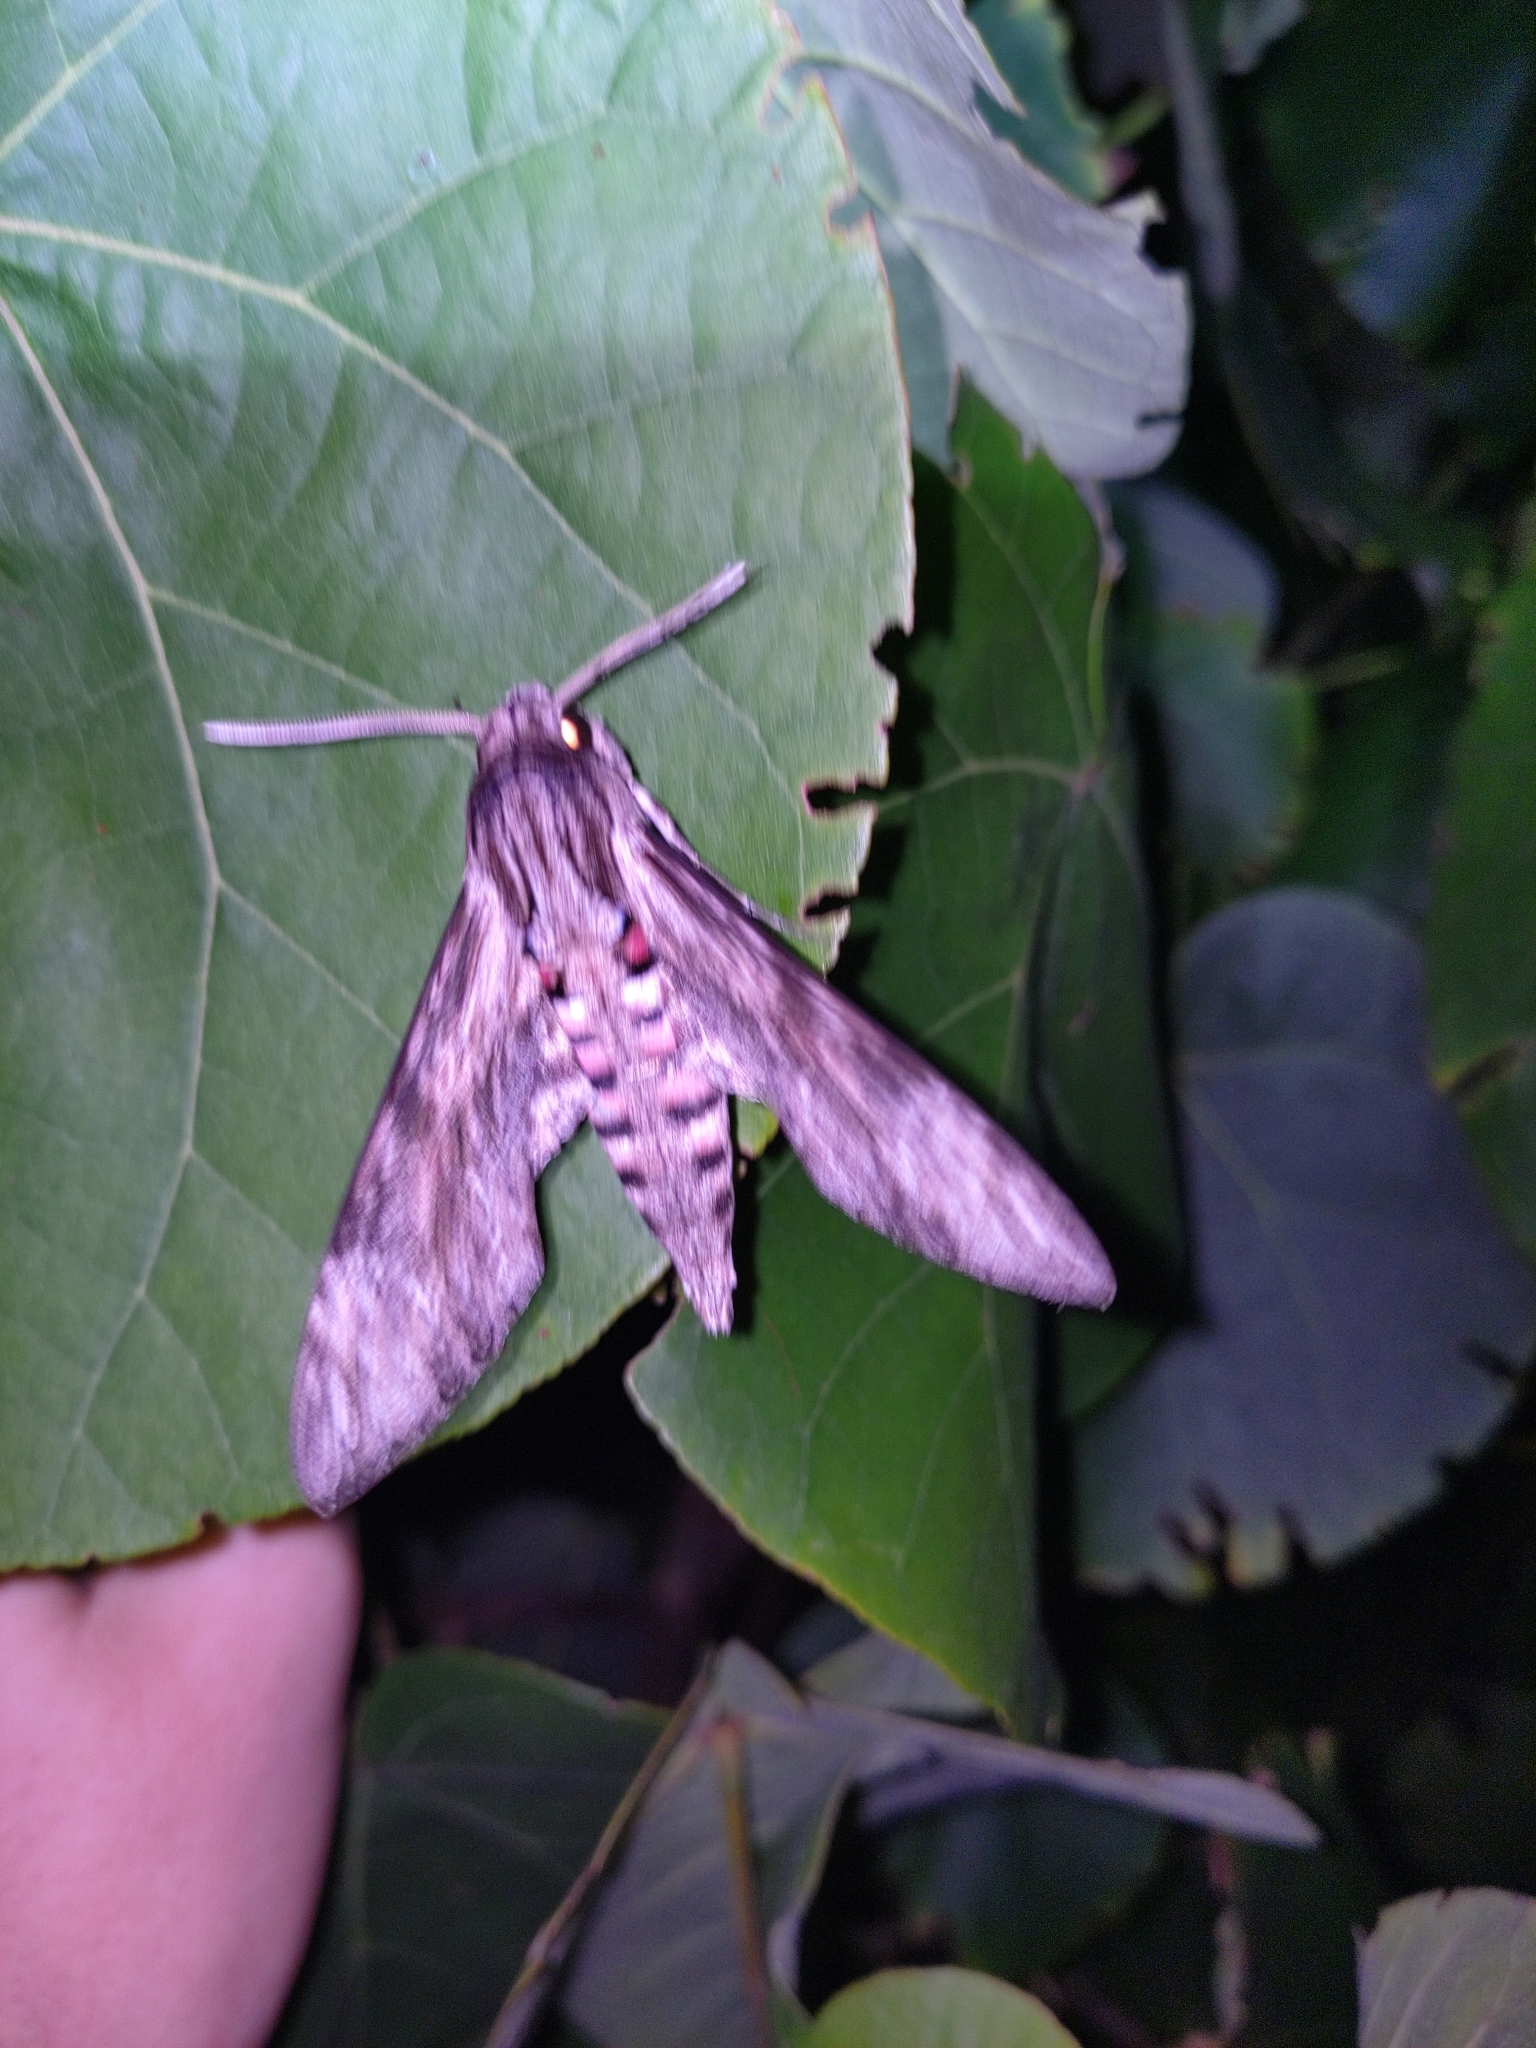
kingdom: Animalia
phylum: Arthropoda
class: Insecta
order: Lepidoptera
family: Sphingidae
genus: Agrius
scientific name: Agrius convolvuli
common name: Convolvulus hawkmoth
